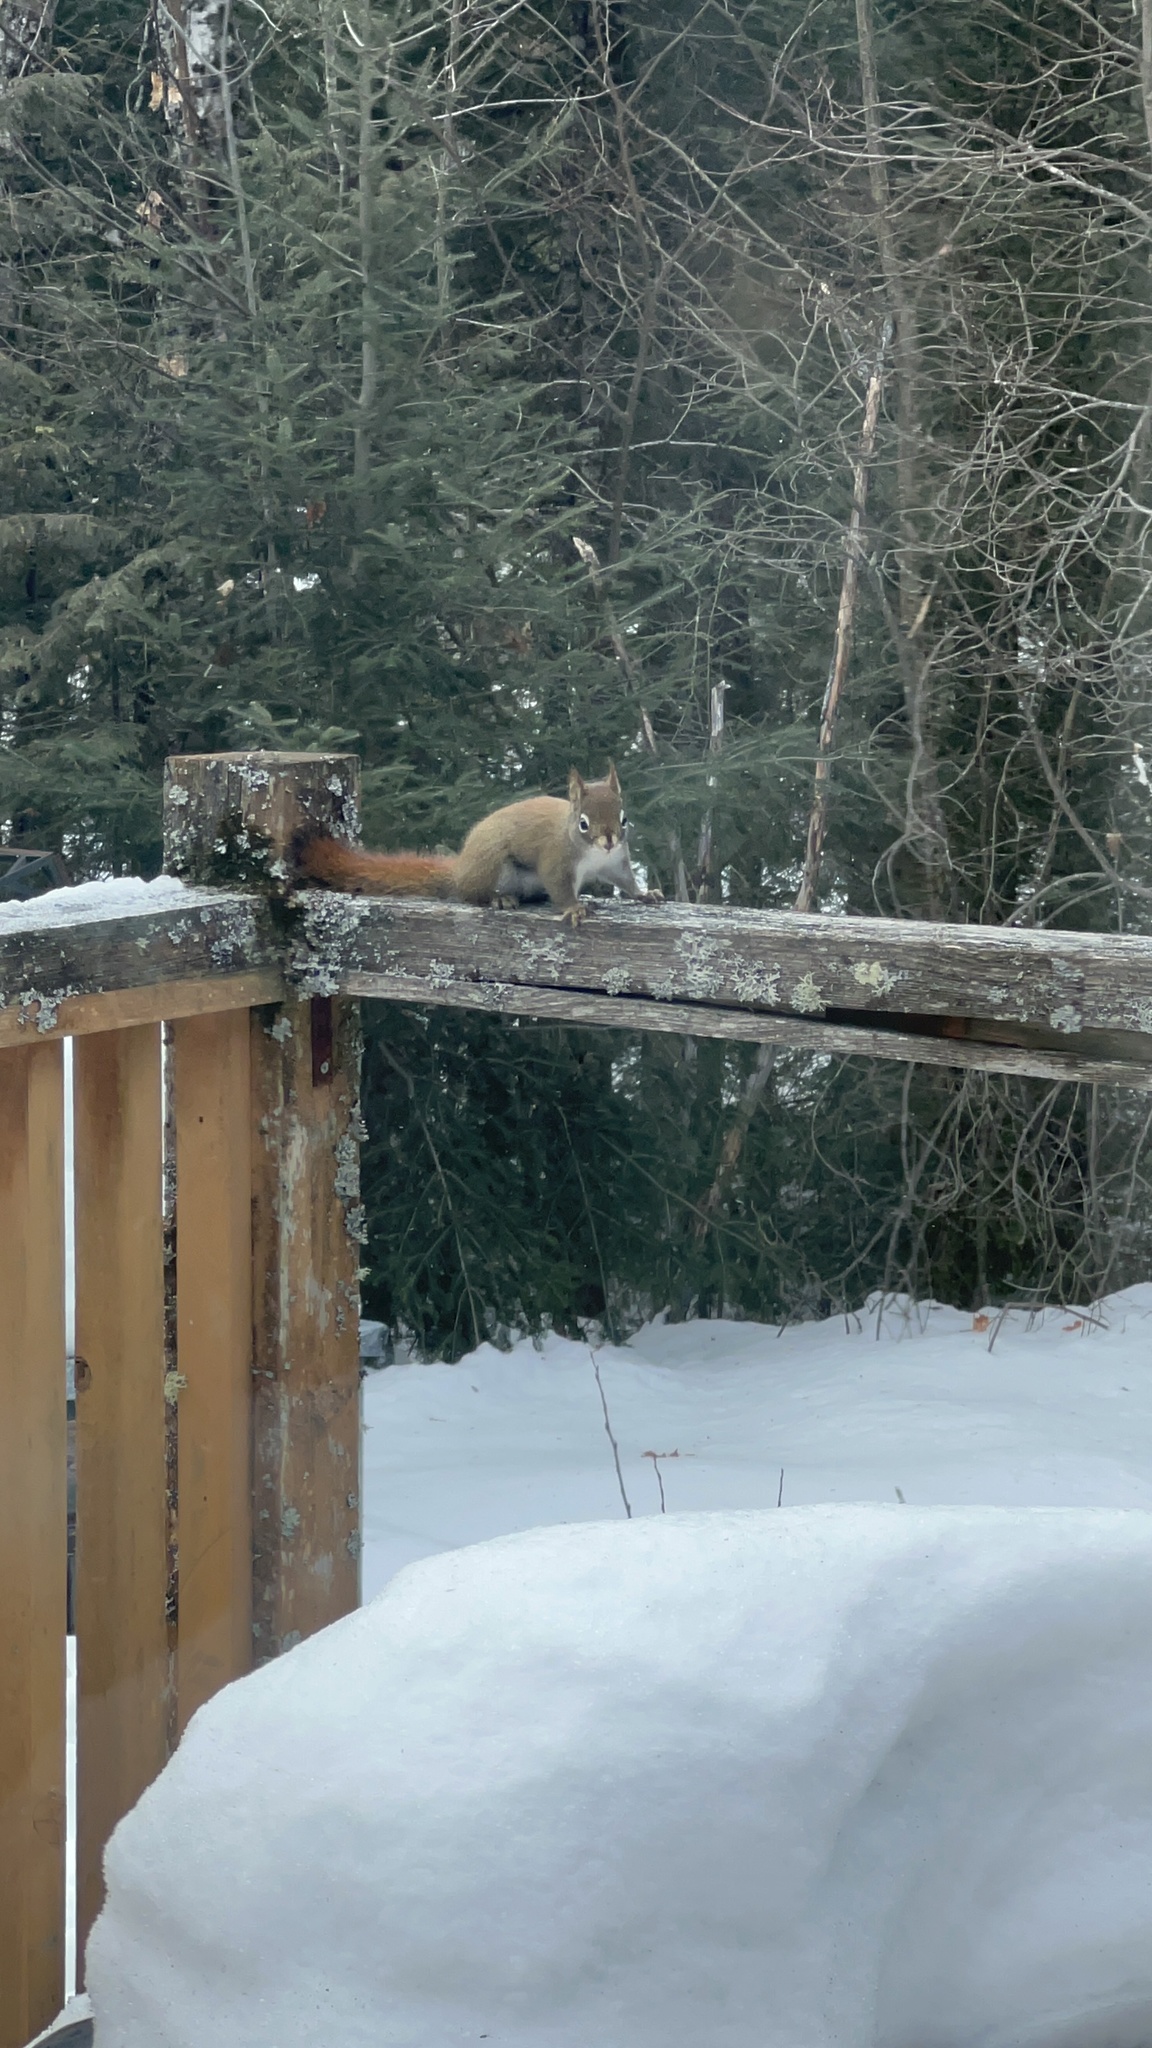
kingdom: Animalia
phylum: Chordata
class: Mammalia
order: Rodentia
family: Sciuridae
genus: Tamiasciurus
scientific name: Tamiasciurus hudsonicus
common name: Red squirrel
